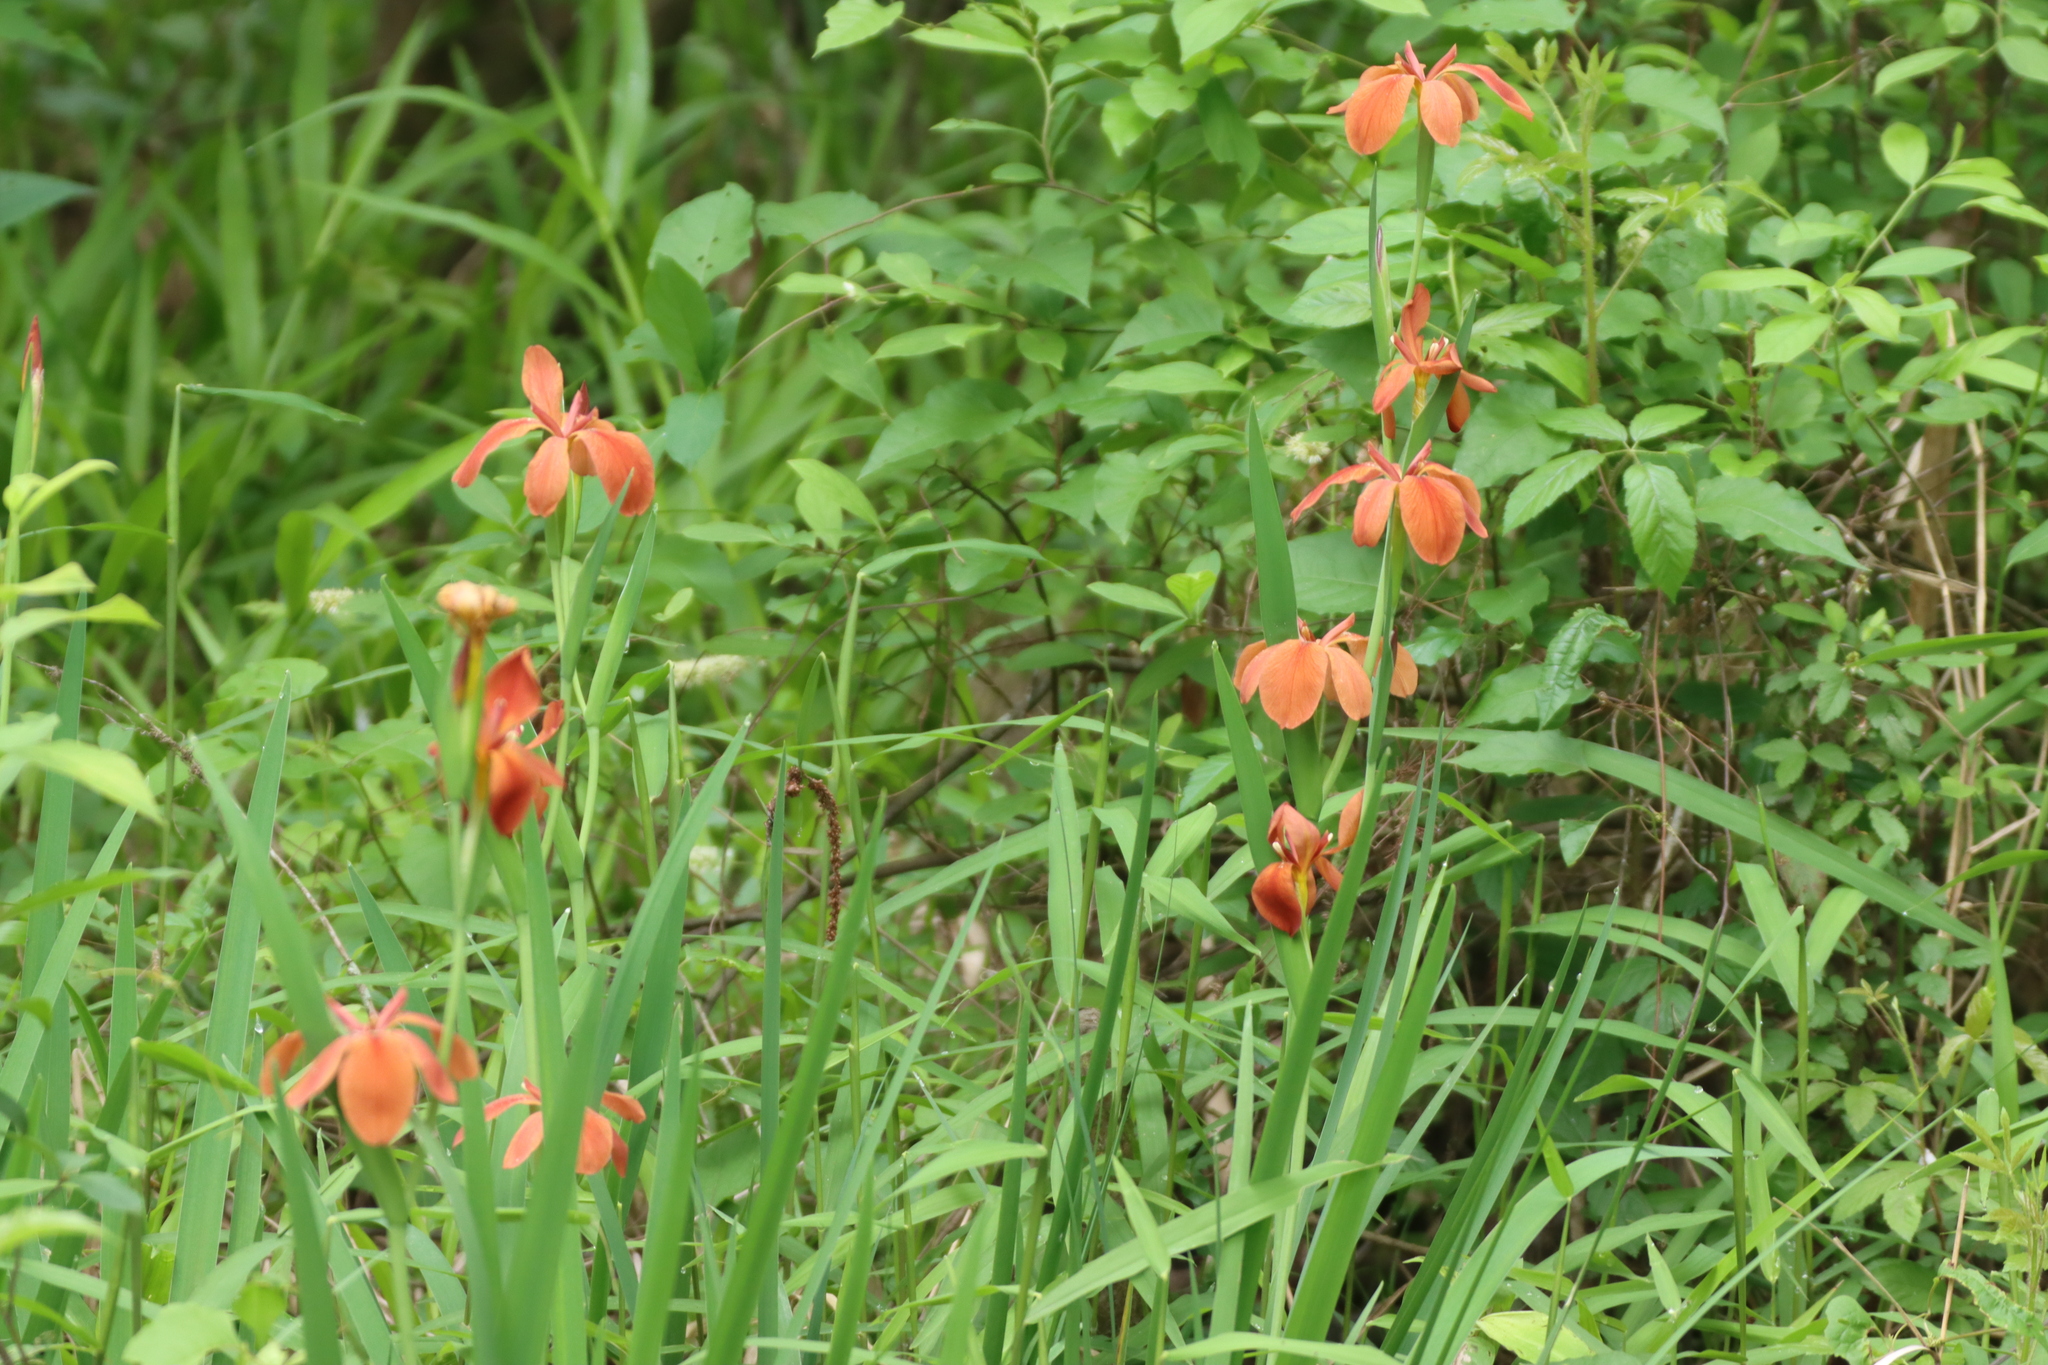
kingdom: Plantae
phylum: Tracheophyta
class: Liliopsida
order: Asparagales
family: Iridaceae
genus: Iris
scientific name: Iris fulva
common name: Copper iris
